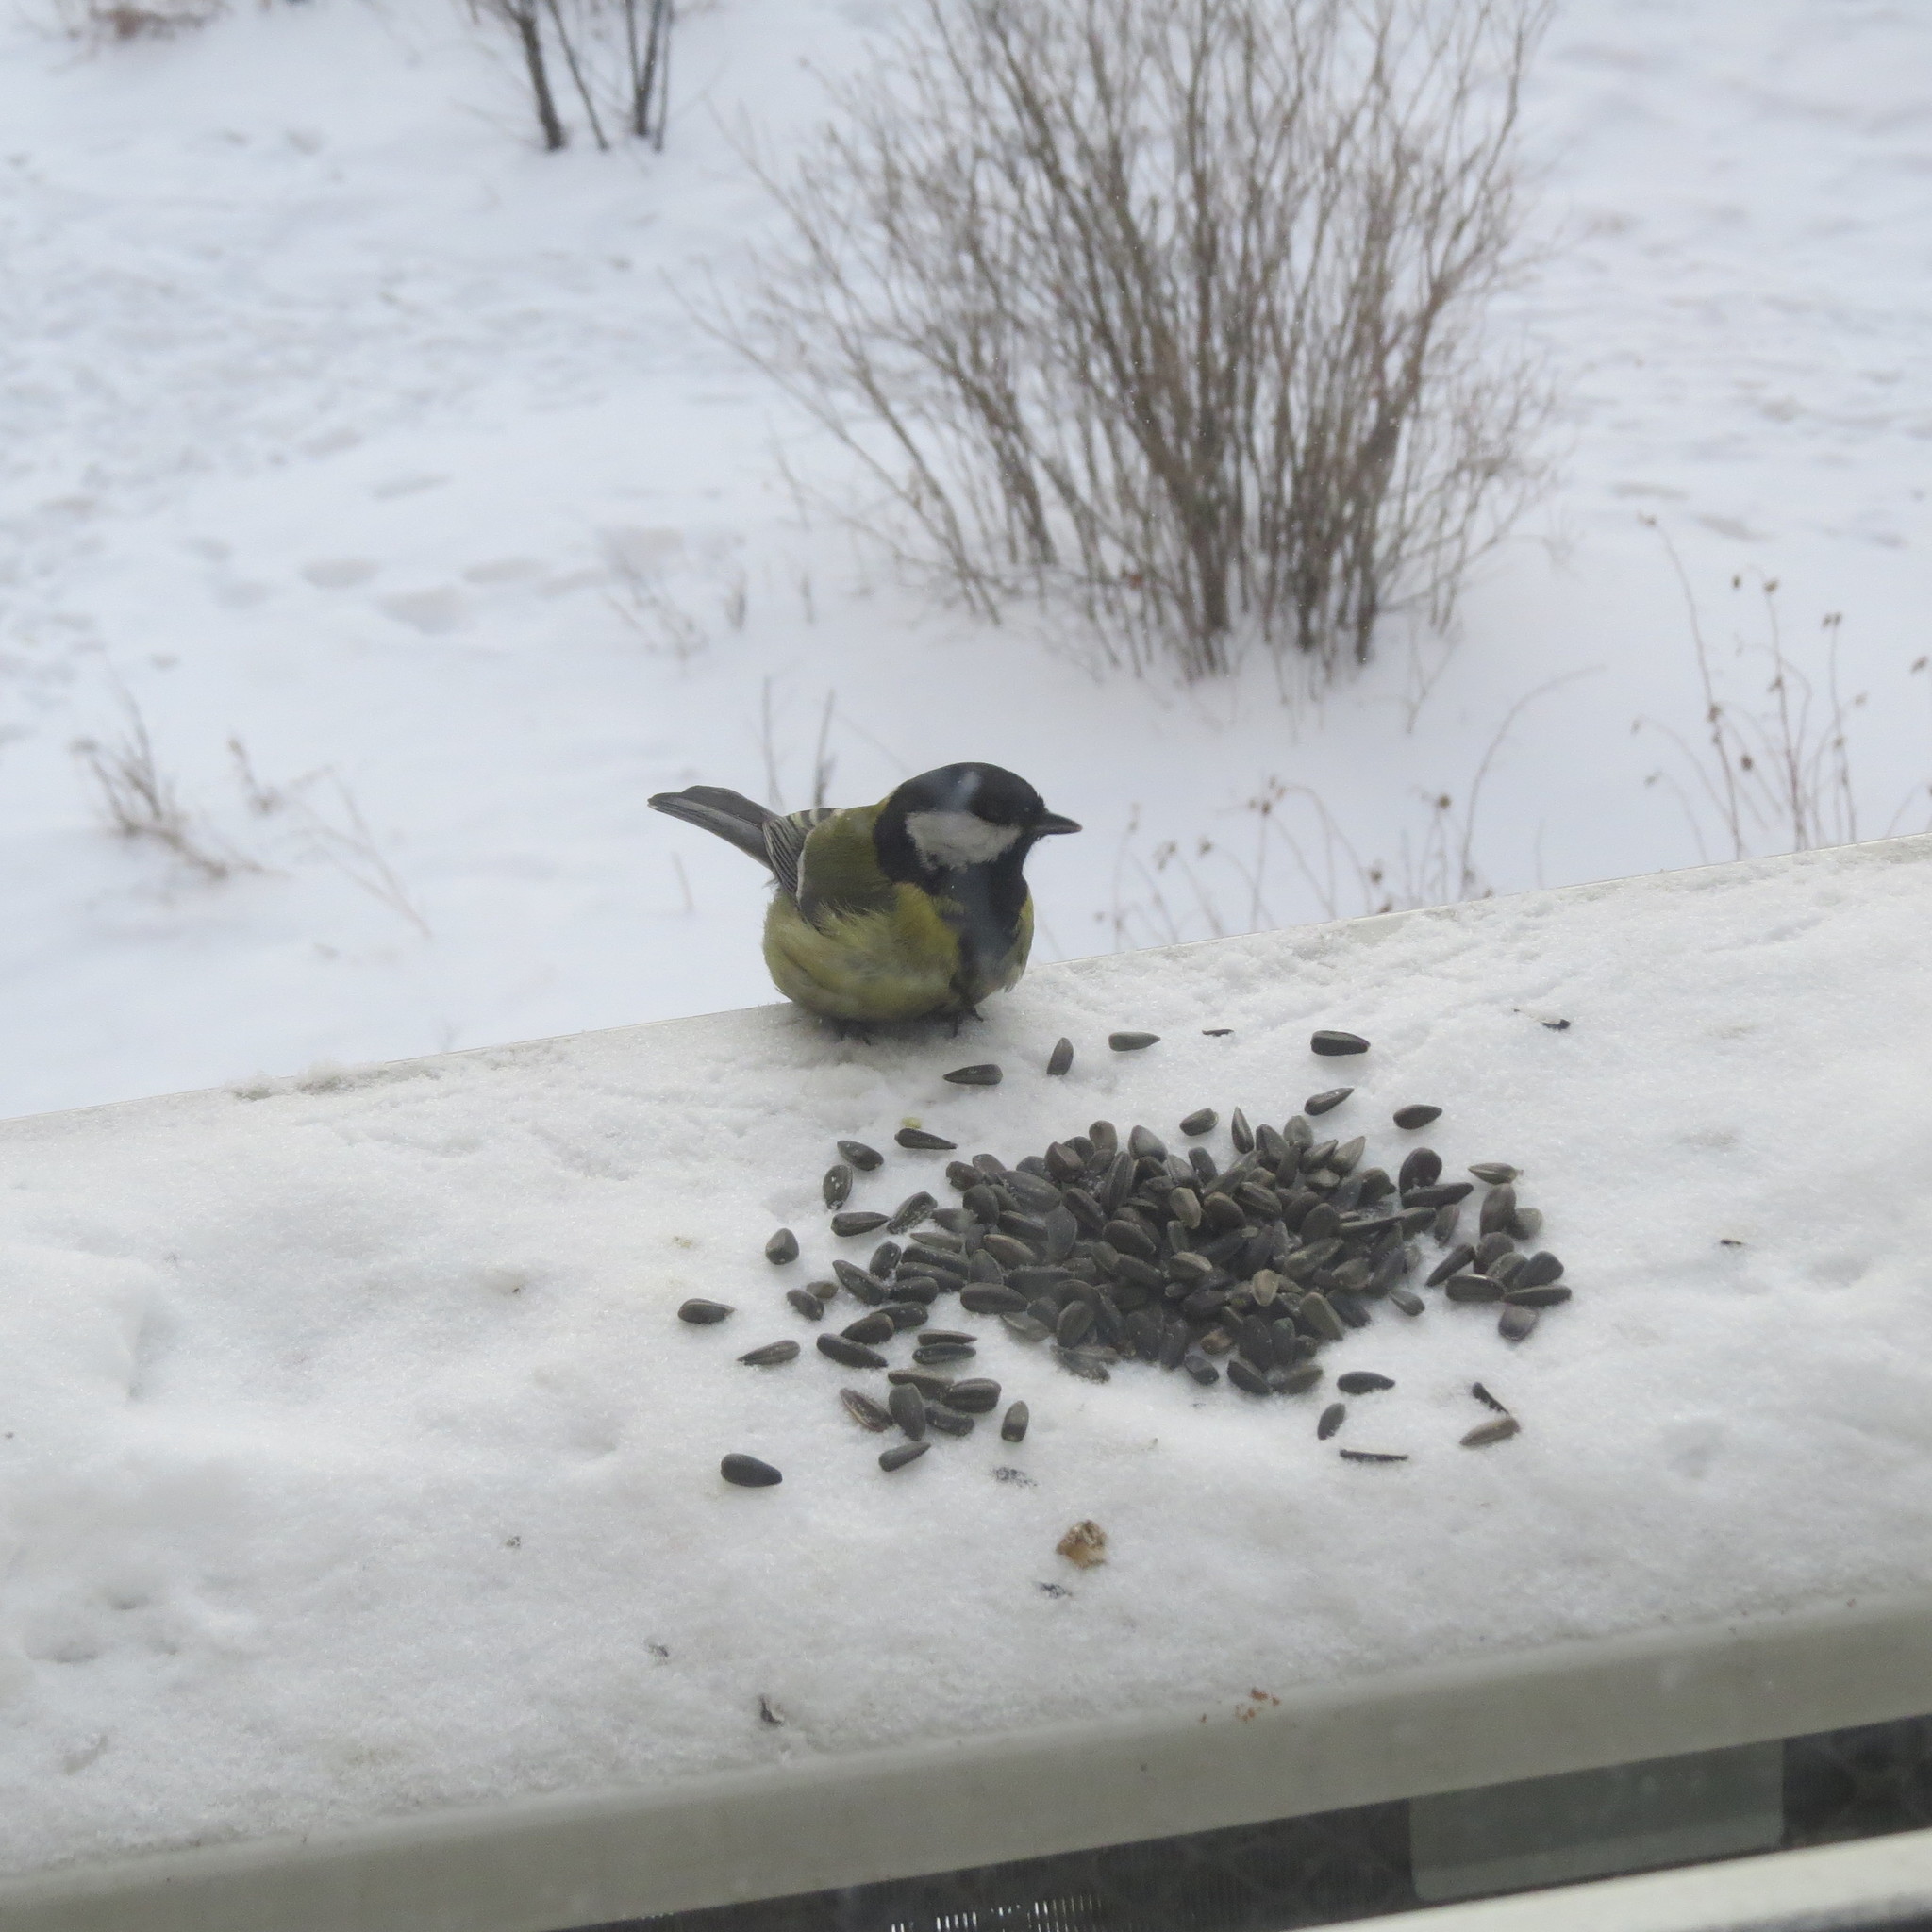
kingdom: Animalia
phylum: Chordata
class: Aves
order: Passeriformes
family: Paridae
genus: Parus
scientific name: Parus major
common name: Great tit
